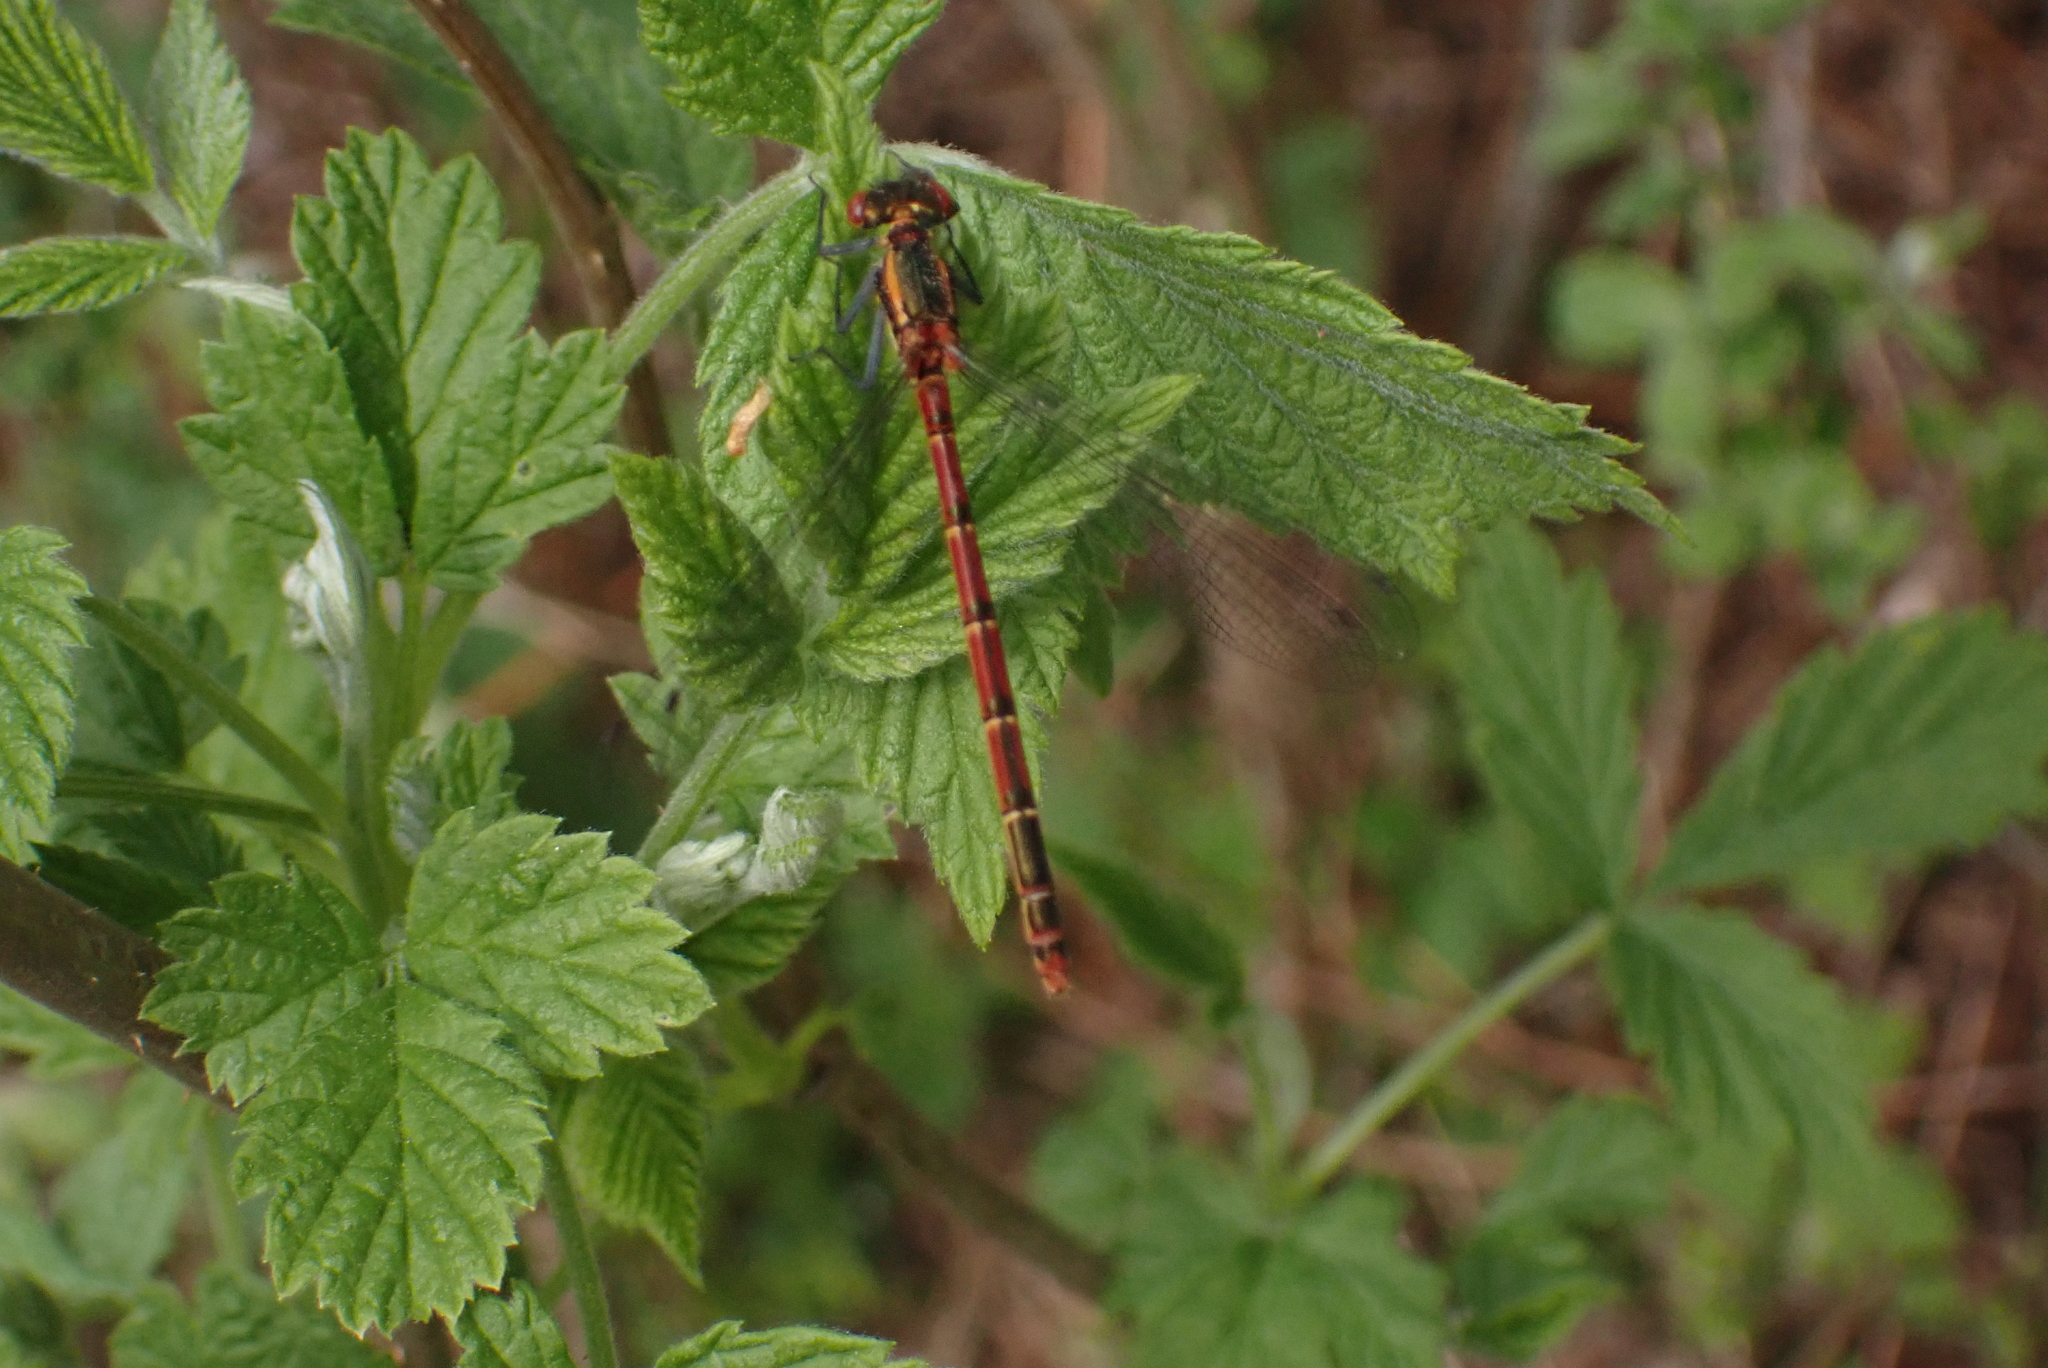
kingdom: Animalia
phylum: Arthropoda
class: Insecta
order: Odonata
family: Coenagrionidae
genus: Pyrrhosoma
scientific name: Pyrrhosoma nymphula
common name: Large red damsel
